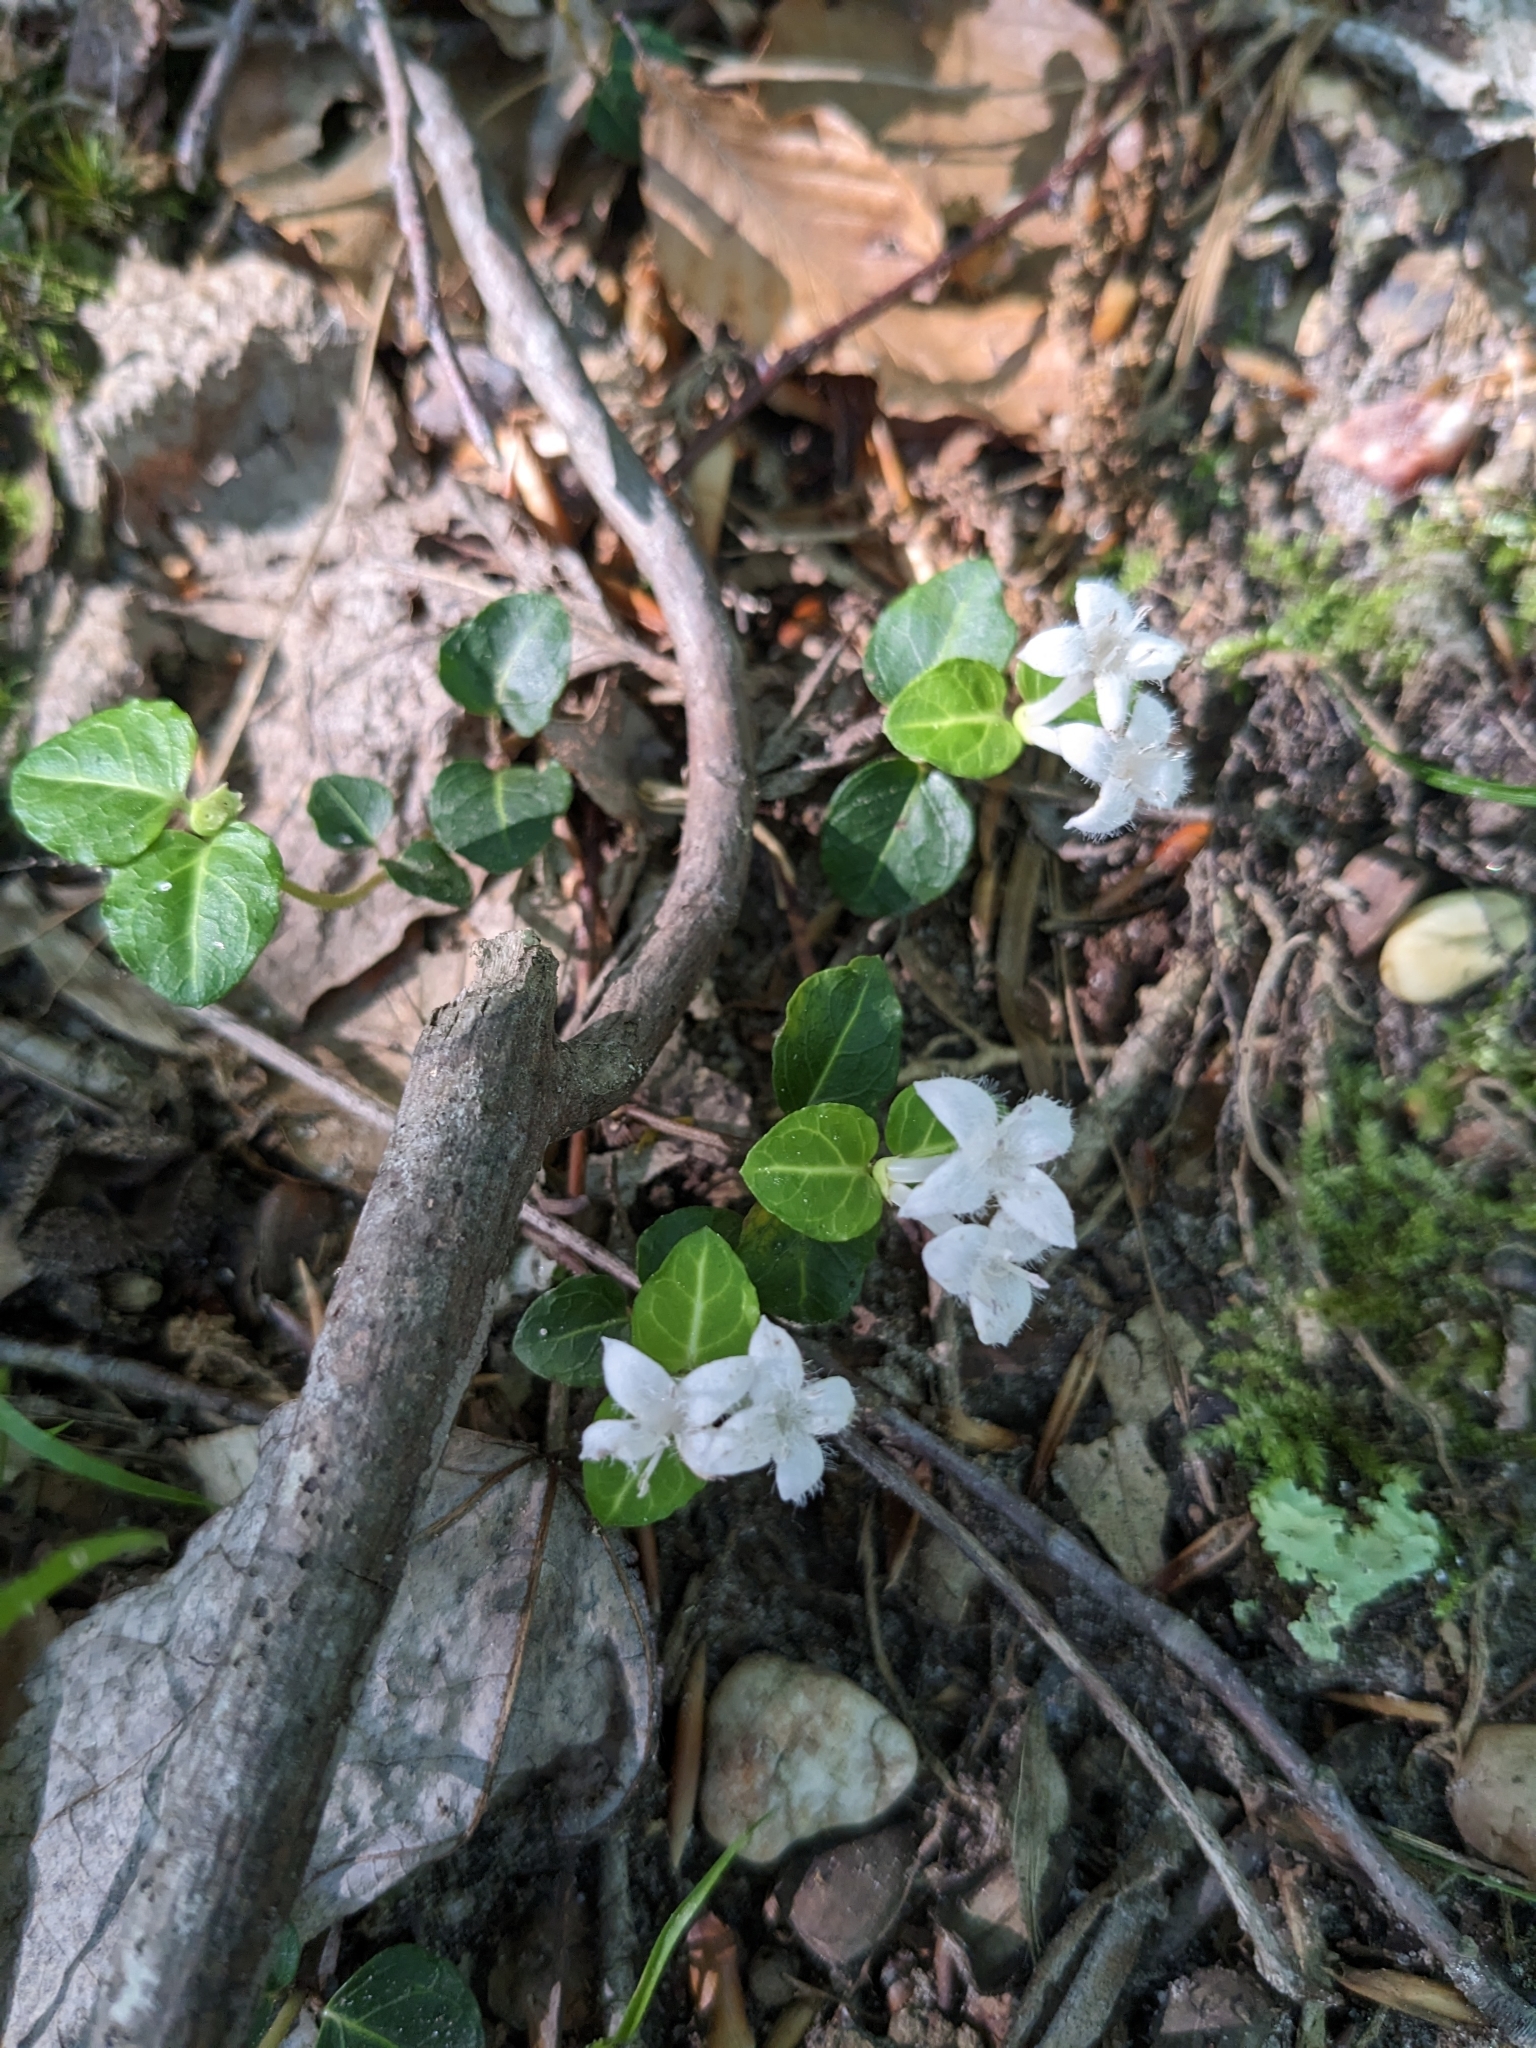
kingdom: Plantae
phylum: Tracheophyta
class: Magnoliopsida
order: Gentianales
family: Rubiaceae
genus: Mitchella
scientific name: Mitchella repens
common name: Partridge-berry
